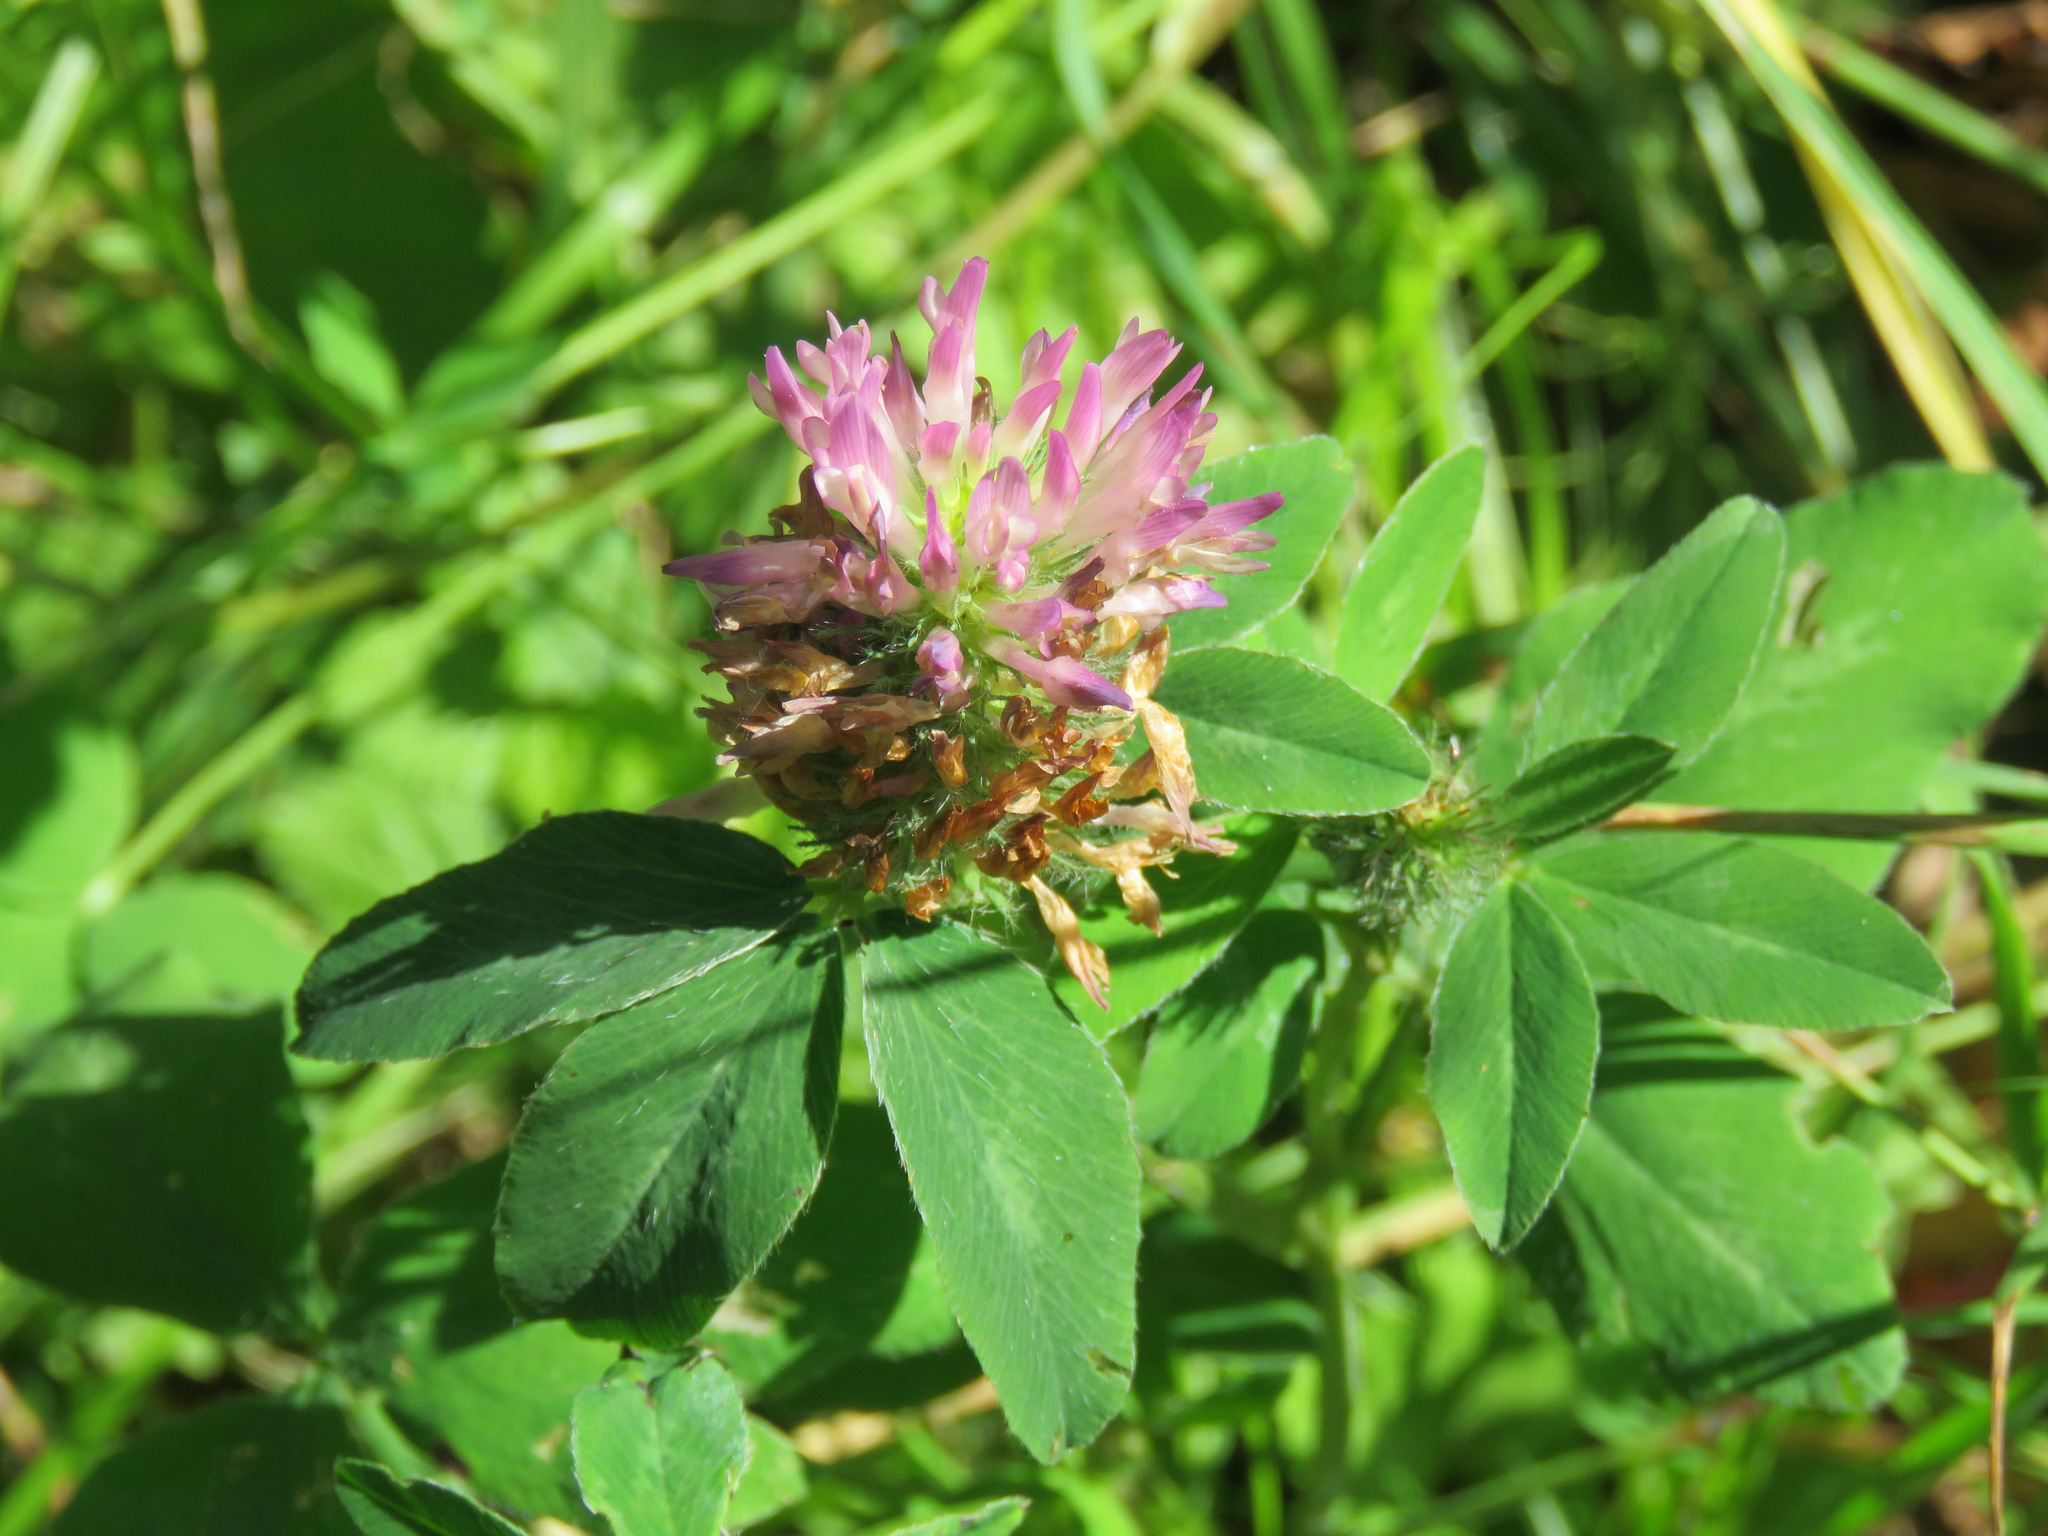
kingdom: Plantae
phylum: Tracheophyta
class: Magnoliopsida
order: Fabales
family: Fabaceae
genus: Trifolium
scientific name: Trifolium pratense
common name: Red clover
